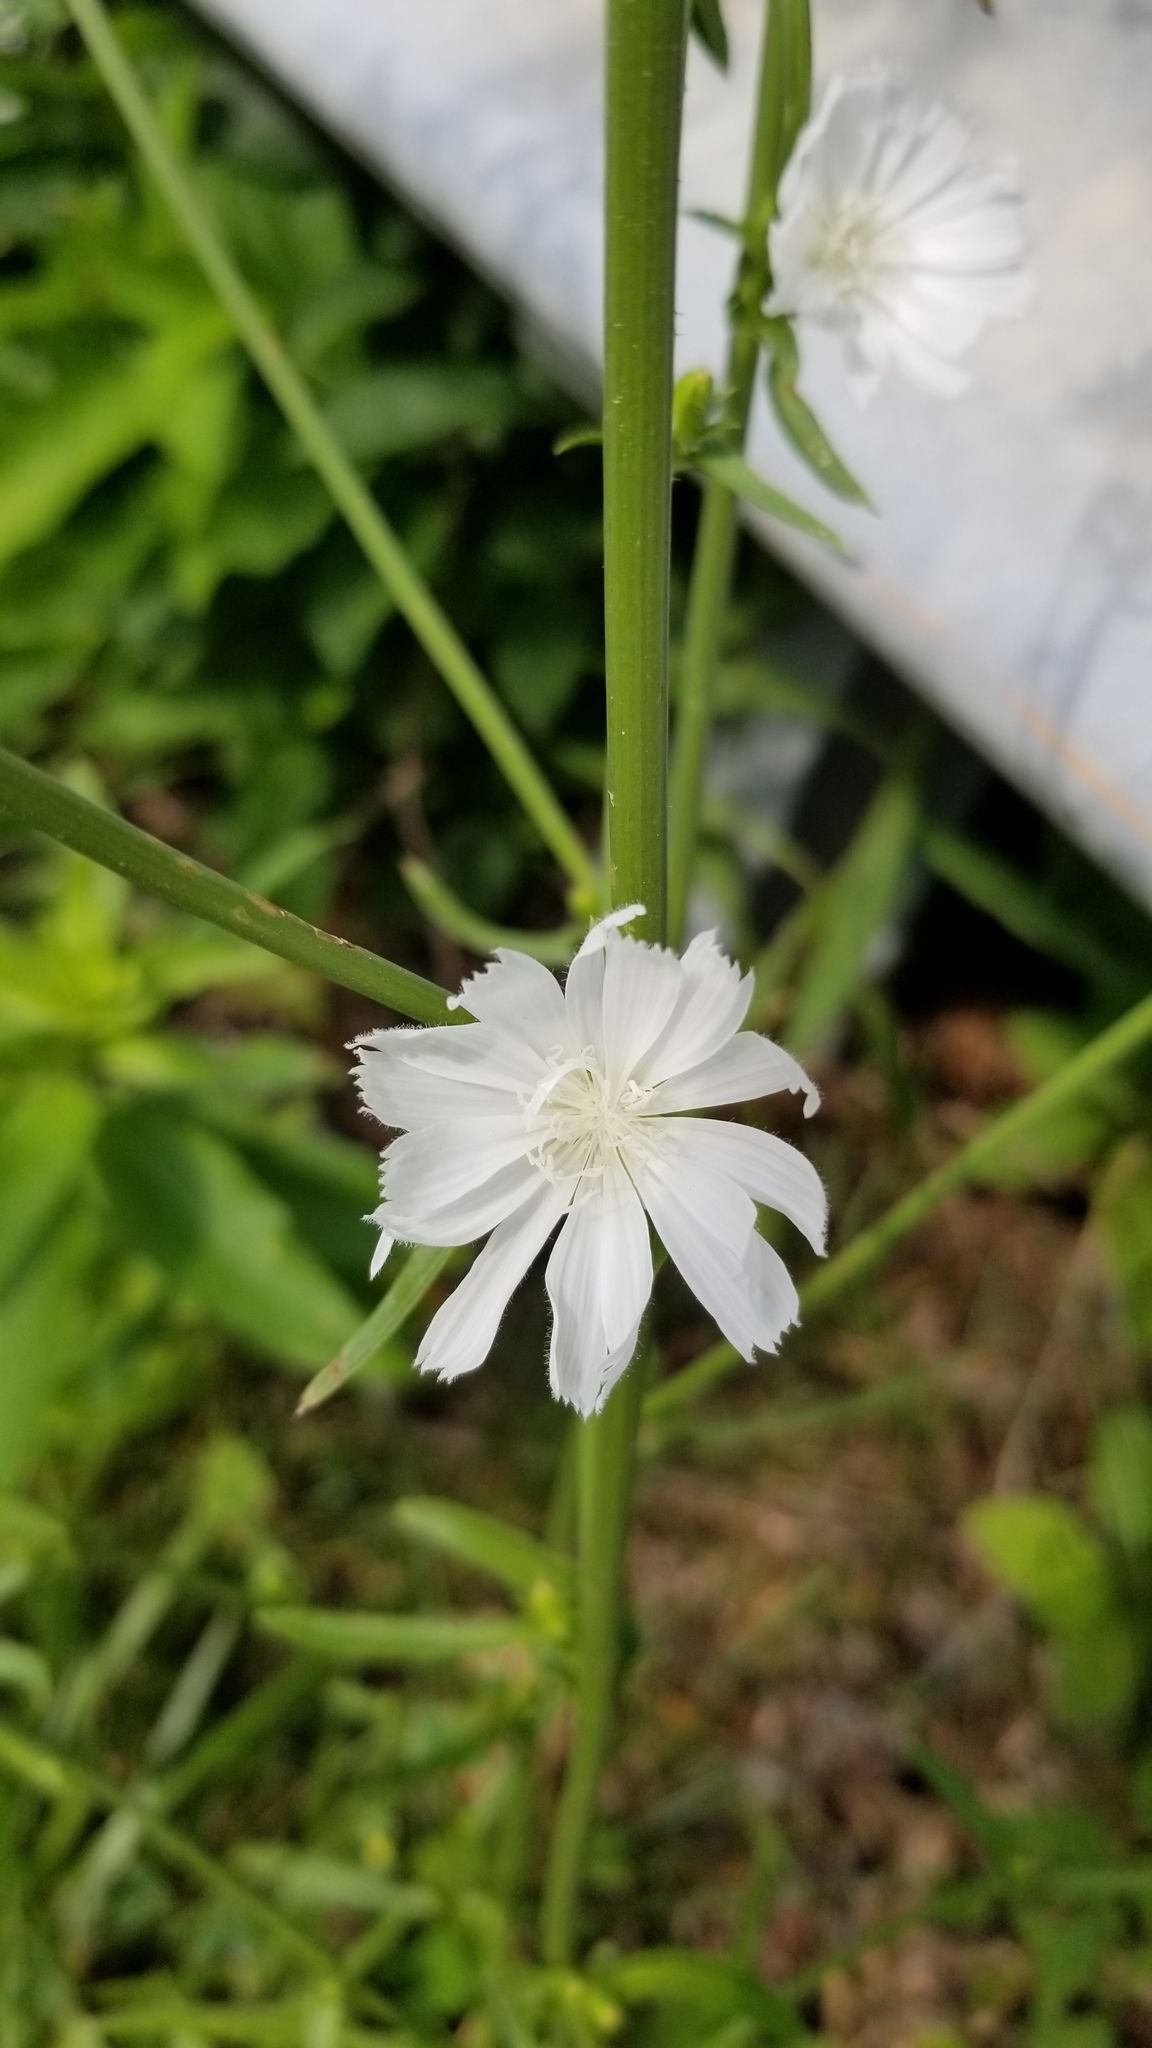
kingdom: Plantae
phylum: Tracheophyta
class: Magnoliopsida
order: Asterales
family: Asteraceae
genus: Cichorium
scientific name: Cichorium intybus
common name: Chicory
